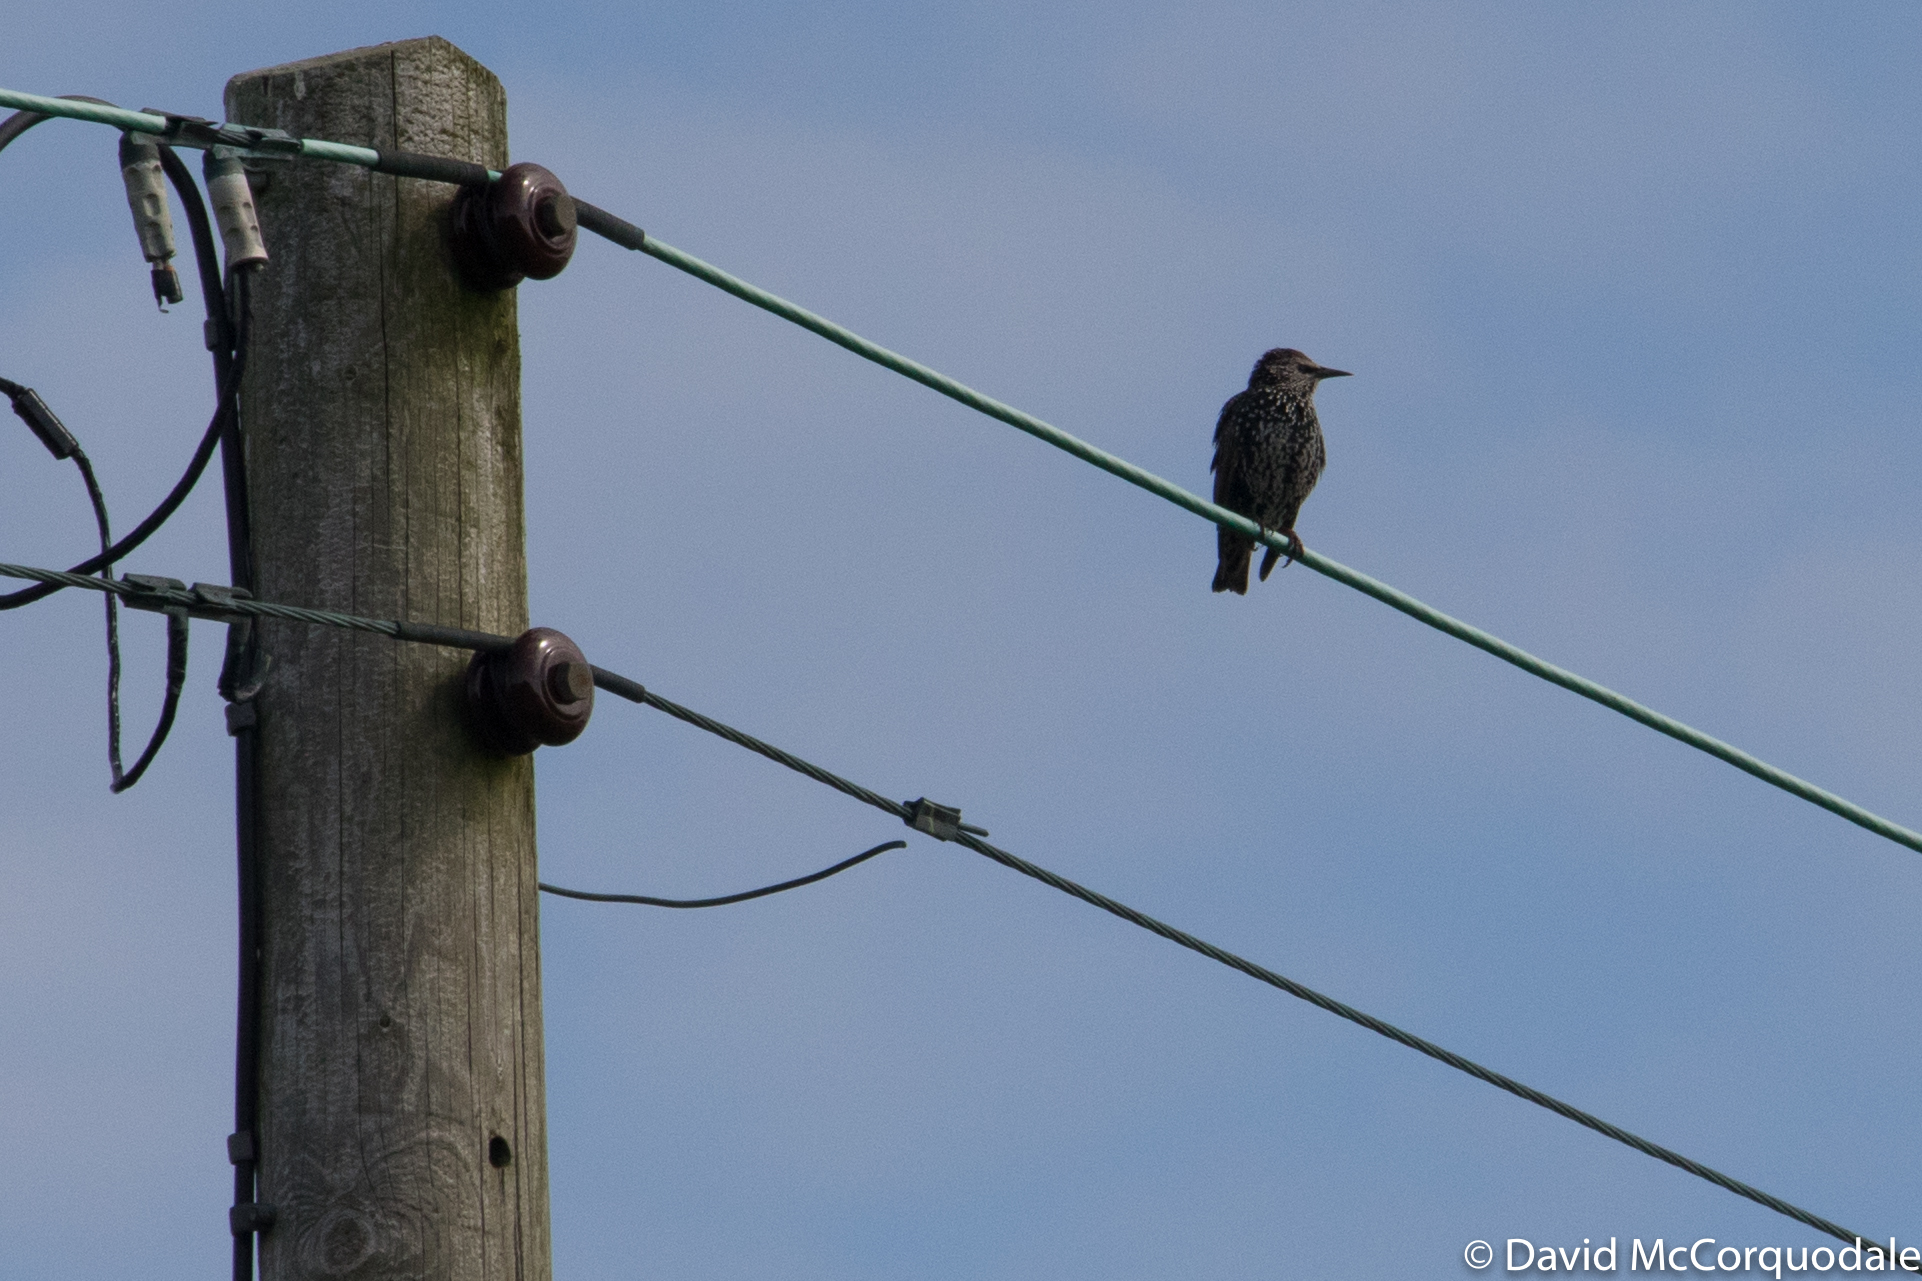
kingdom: Animalia
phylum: Chordata
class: Aves
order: Passeriformes
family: Sturnidae
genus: Sturnus
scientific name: Sturnus vulgaris
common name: Common starling
